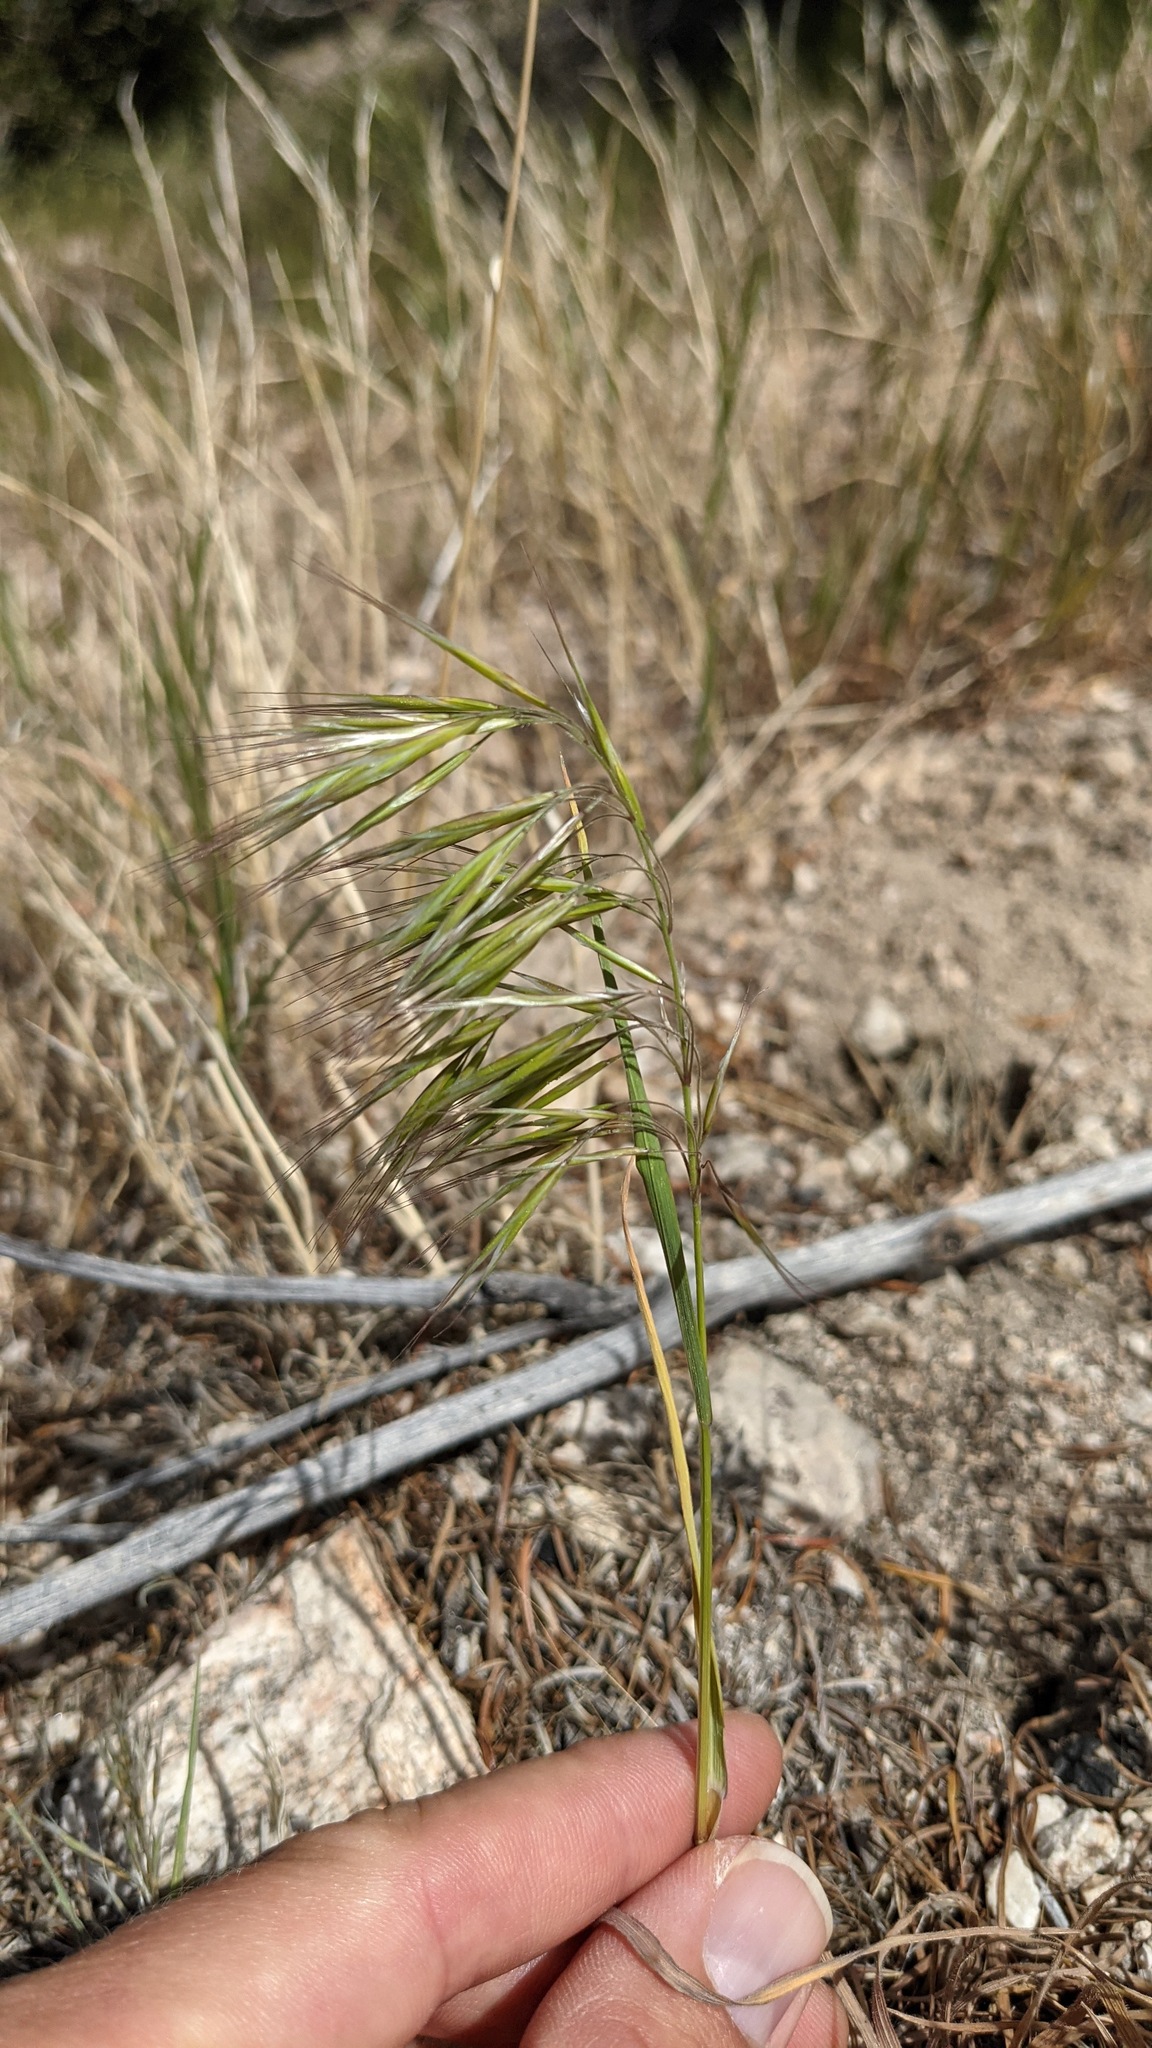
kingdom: Plantae
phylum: Tracheophyta
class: Liliopsida
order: Poales
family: Poaceae
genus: Bromus
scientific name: Bromus tectorum
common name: Cheatgrass
